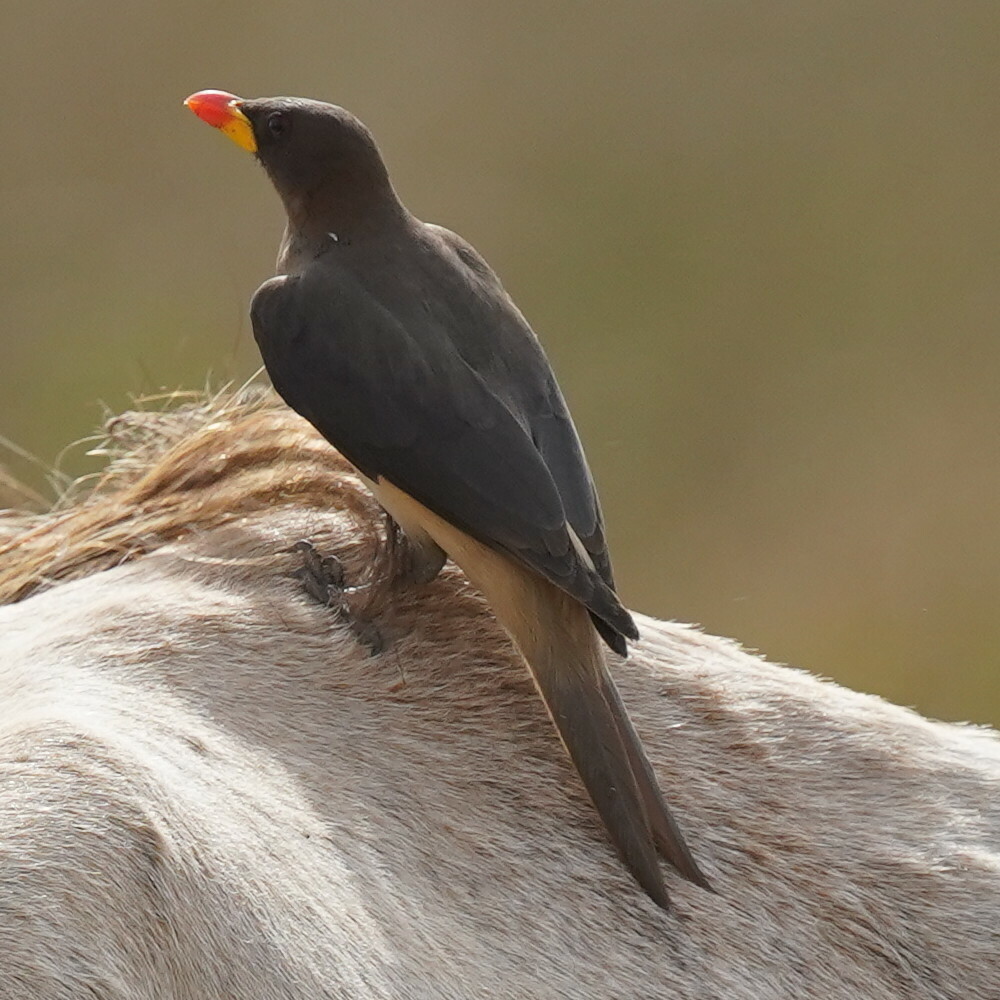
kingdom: Animalia
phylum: Chordata
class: Aves
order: Passeriformes
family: Buphagidae
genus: Buphagus
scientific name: Buphagus africanus
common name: Yellow-billed oxpecker
